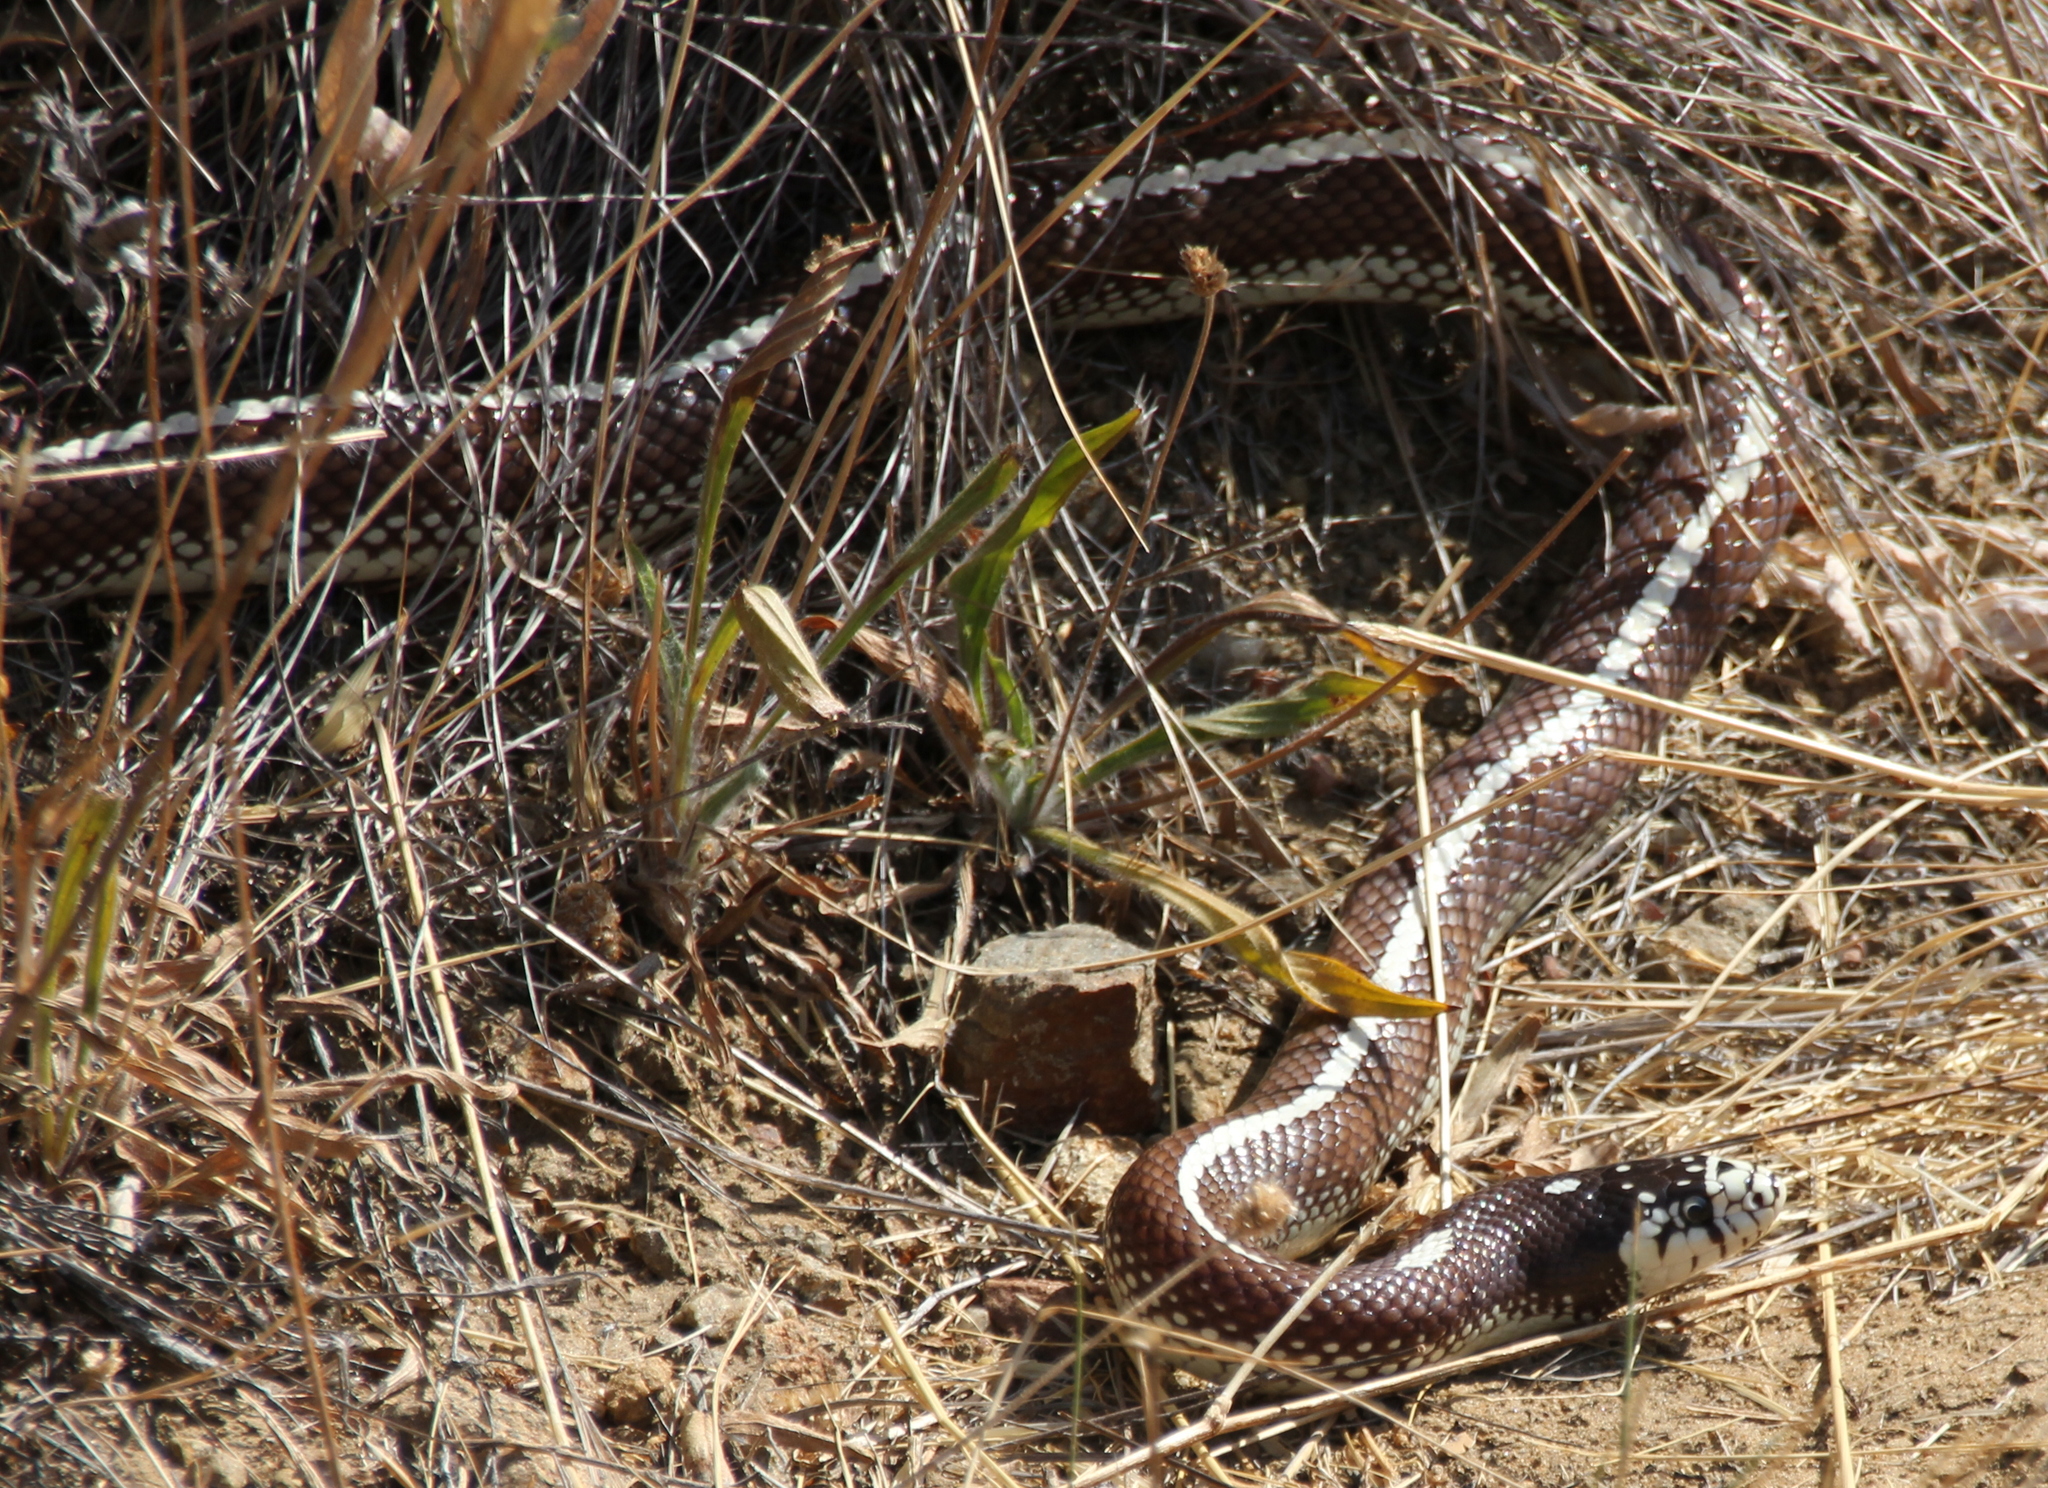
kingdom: Animalia
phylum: Chordata
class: Squamata
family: Colubridae
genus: Lampropeltis
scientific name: Lampropeltis californiae
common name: California kingsnake
